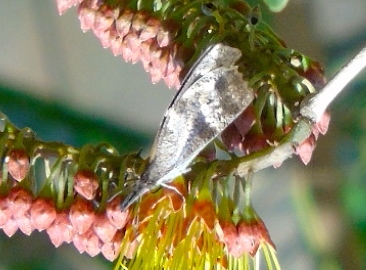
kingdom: Animalia
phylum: Arthropoda
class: Insecta
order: Lepidoptera
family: Nymphalidae
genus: Libytheana
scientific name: Libytheana carinenta
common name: American snout
